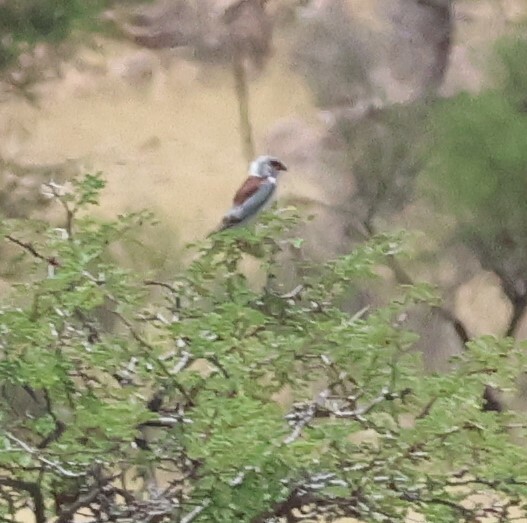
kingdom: Animalia
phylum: Chordata
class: Aves
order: Falconiformes
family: Falconidae
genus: Polihierax
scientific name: Polihierax semitorquatus
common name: Pygmy falcon
